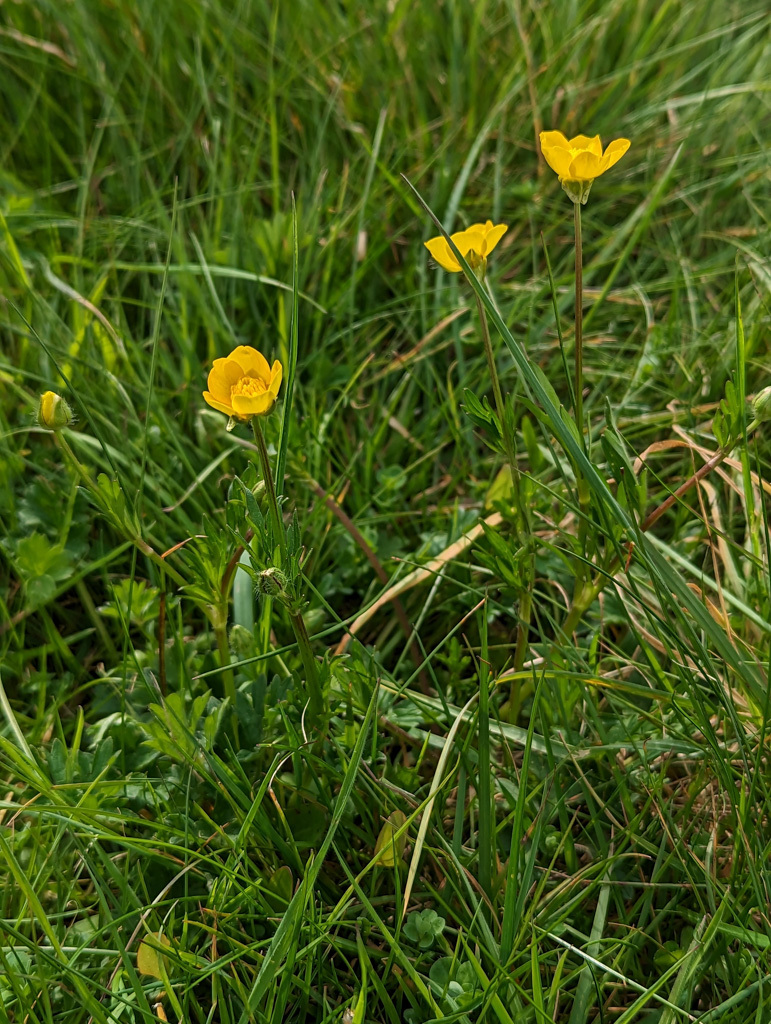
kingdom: Plantae
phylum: Tracheophyta
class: Magnoliopsida
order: Ranunculales
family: Ranunculaceae
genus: Ranunculus
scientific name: Ranunculus bulbosus
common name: Bulbous buttercup
